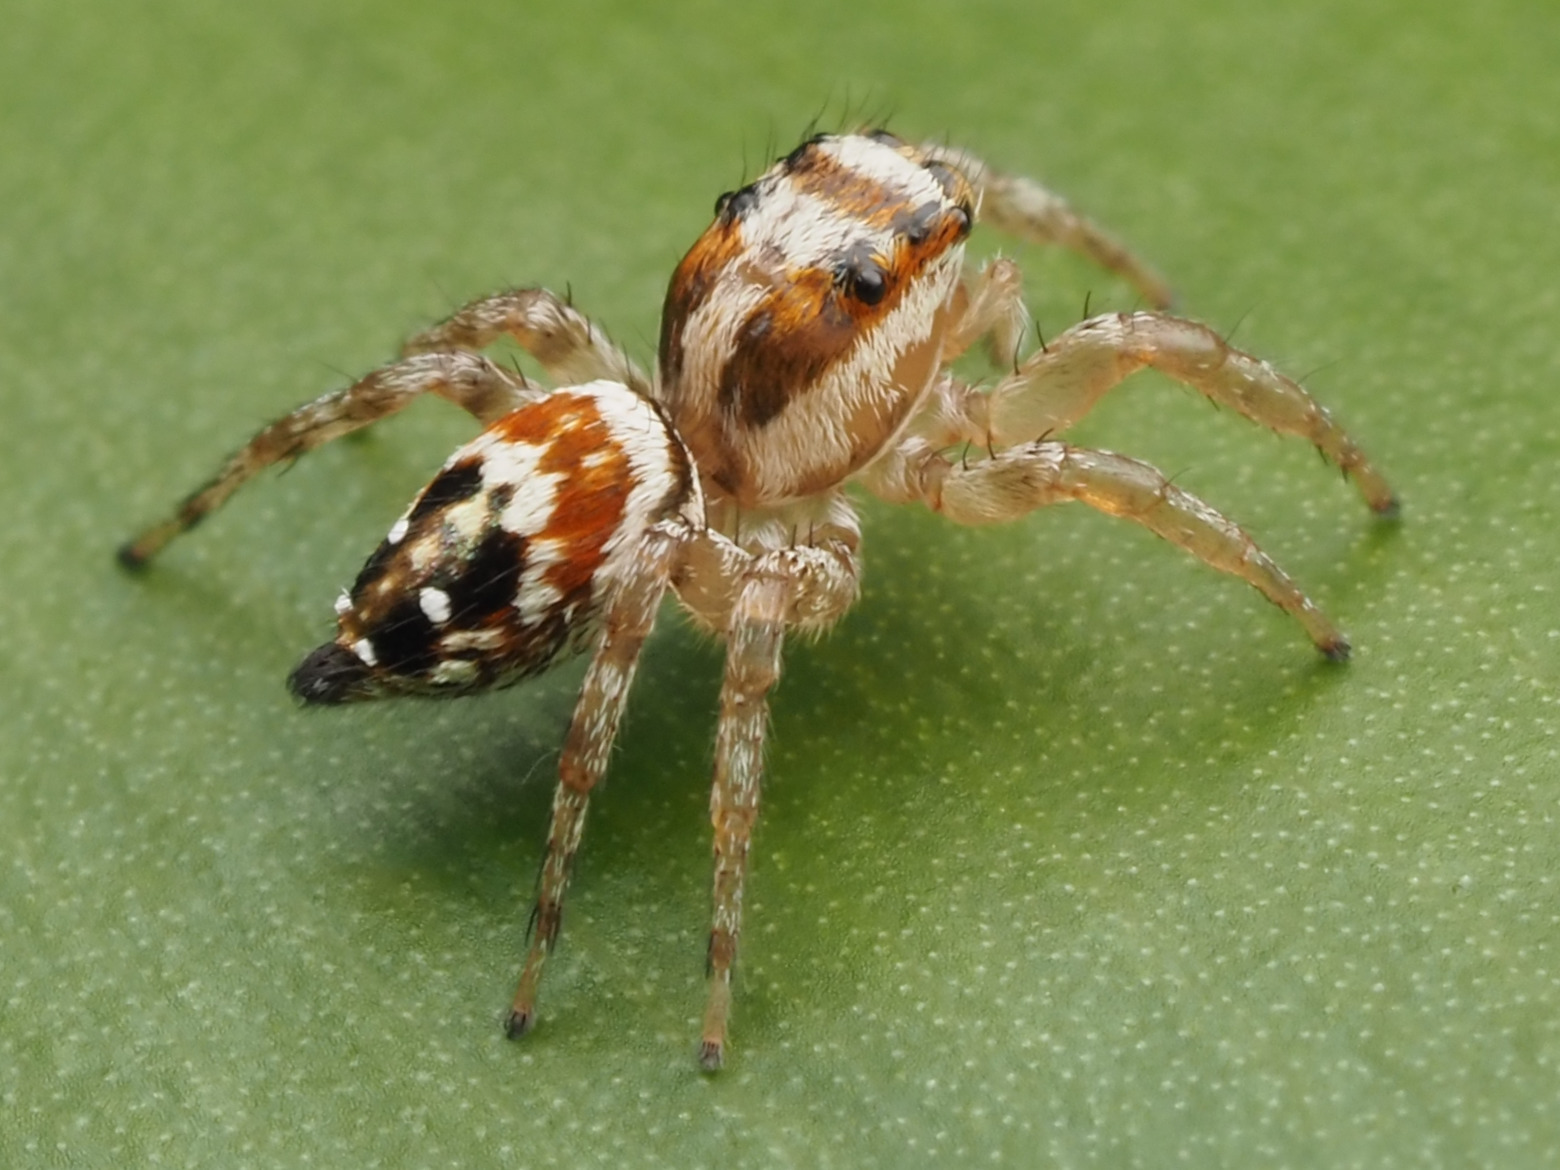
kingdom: Animalia
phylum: Arthropoda
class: Arachnida
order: Araneae
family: Salticidae
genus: Nycerella
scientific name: Nycerella decorata
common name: Jumping spiders
